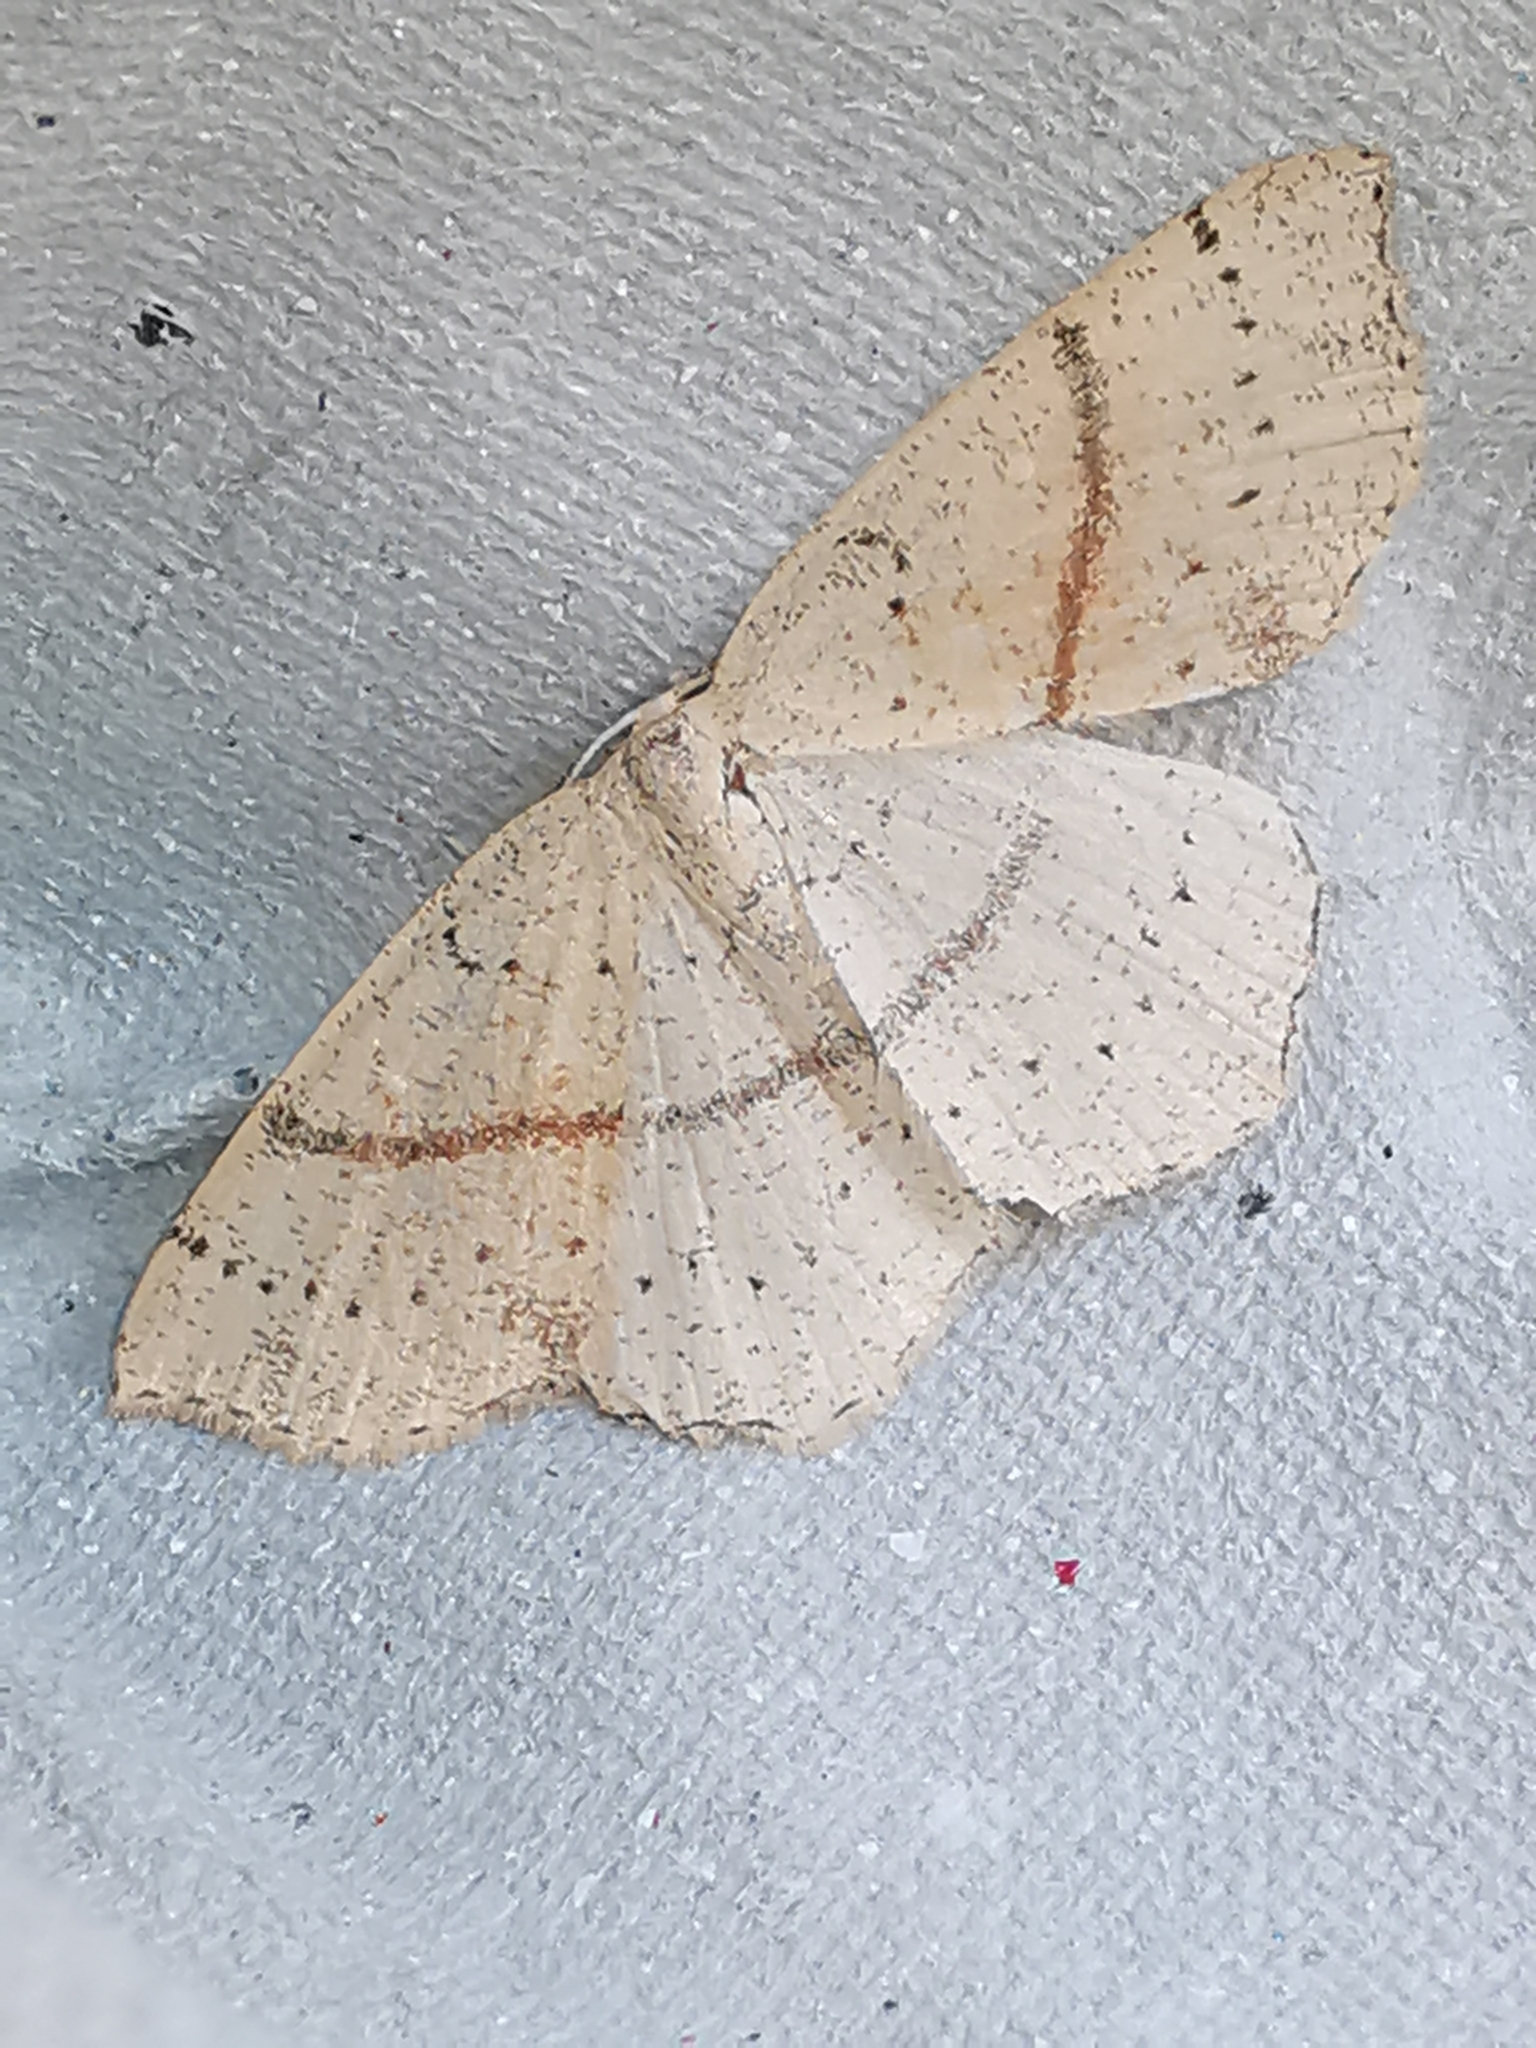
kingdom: Animalia
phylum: Arthropoda
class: Insecta
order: Lepidoptera
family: Geometridae
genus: Cyclophora
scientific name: Cyclophora punctaria
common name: Maiden's blush
